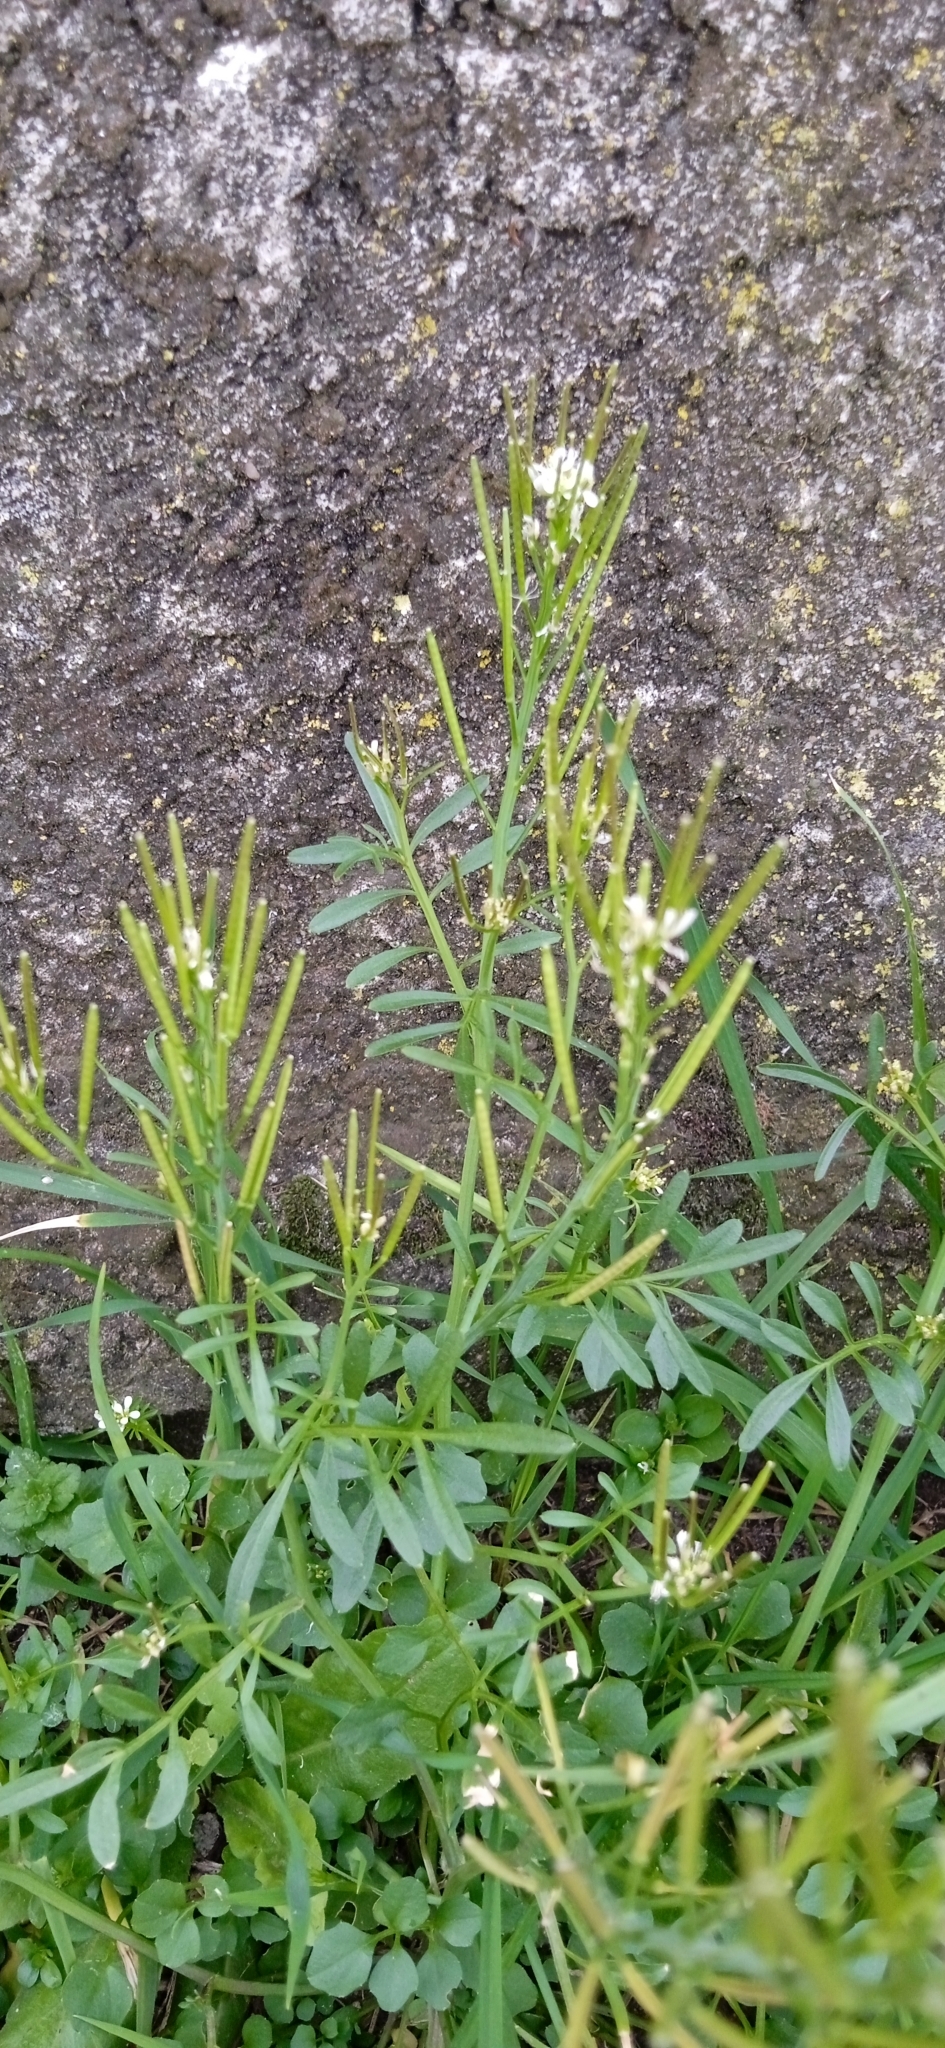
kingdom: Plantae
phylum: Tracheophyta
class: Magnoliopsida
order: Brassicales
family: Brassicaceae
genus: Cardamine
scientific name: Cardamine hirsuta
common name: Hairy bittercress
